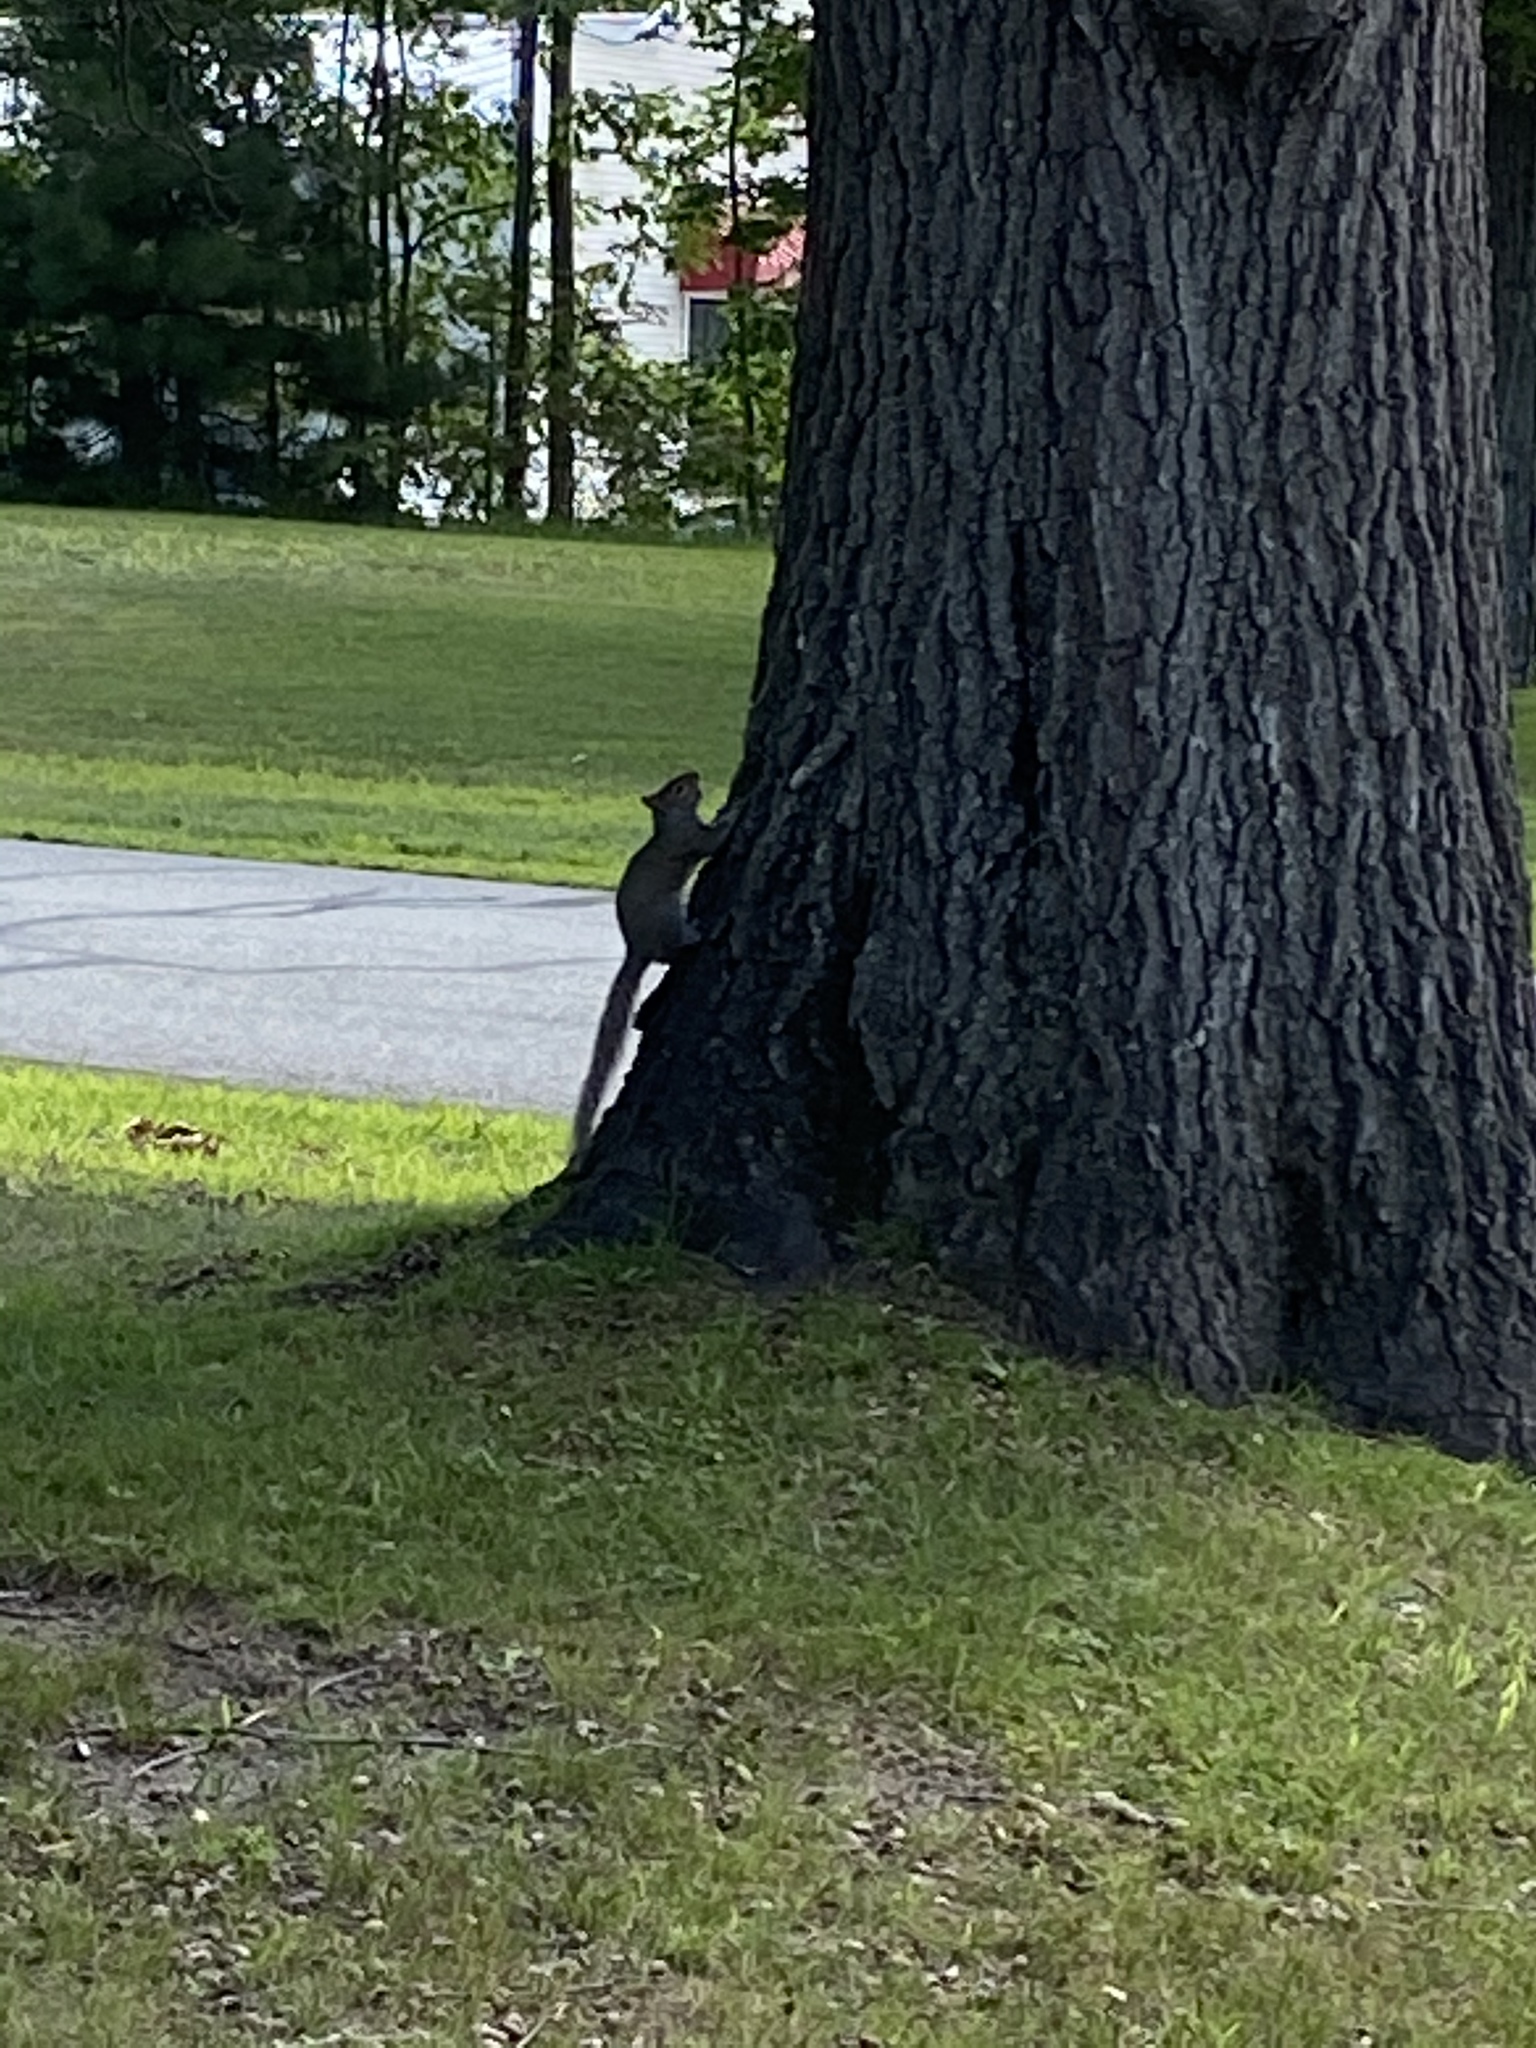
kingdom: Animalia
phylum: Chordata
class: Mammalia
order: Rodentia
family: Sciuridae
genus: Sciurus
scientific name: Sciurus carolinensis
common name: Eastern gray squirrel
